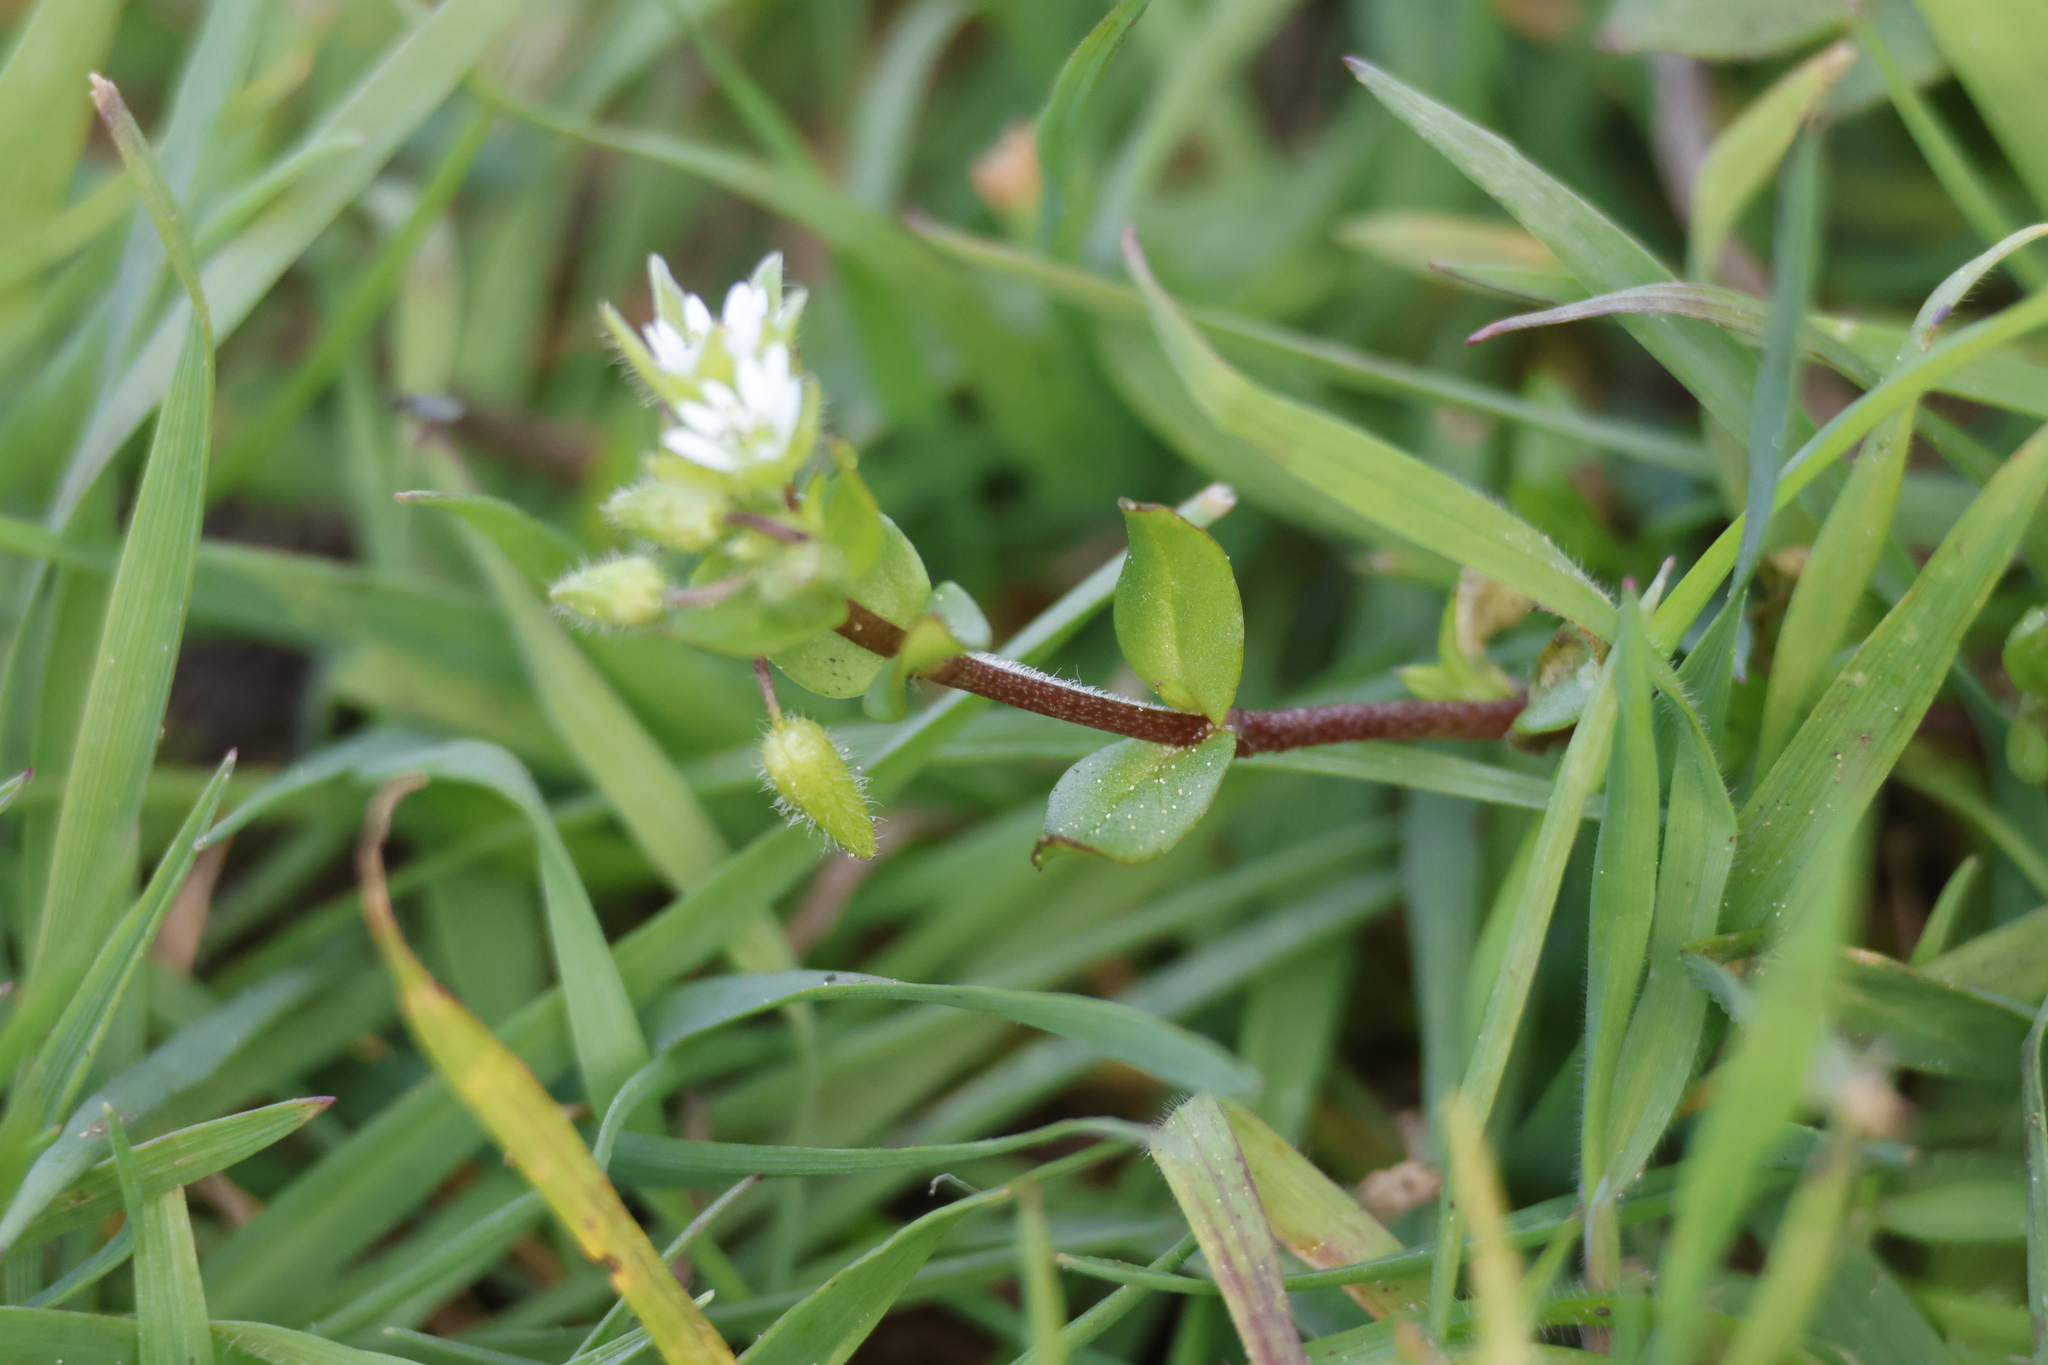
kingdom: Plantae
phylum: Tracheophyta
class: Magnoliopsida
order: Caryophyllales
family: Caryophyllaceae
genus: Stellaria
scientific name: Stellaria media
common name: Common chickweed
